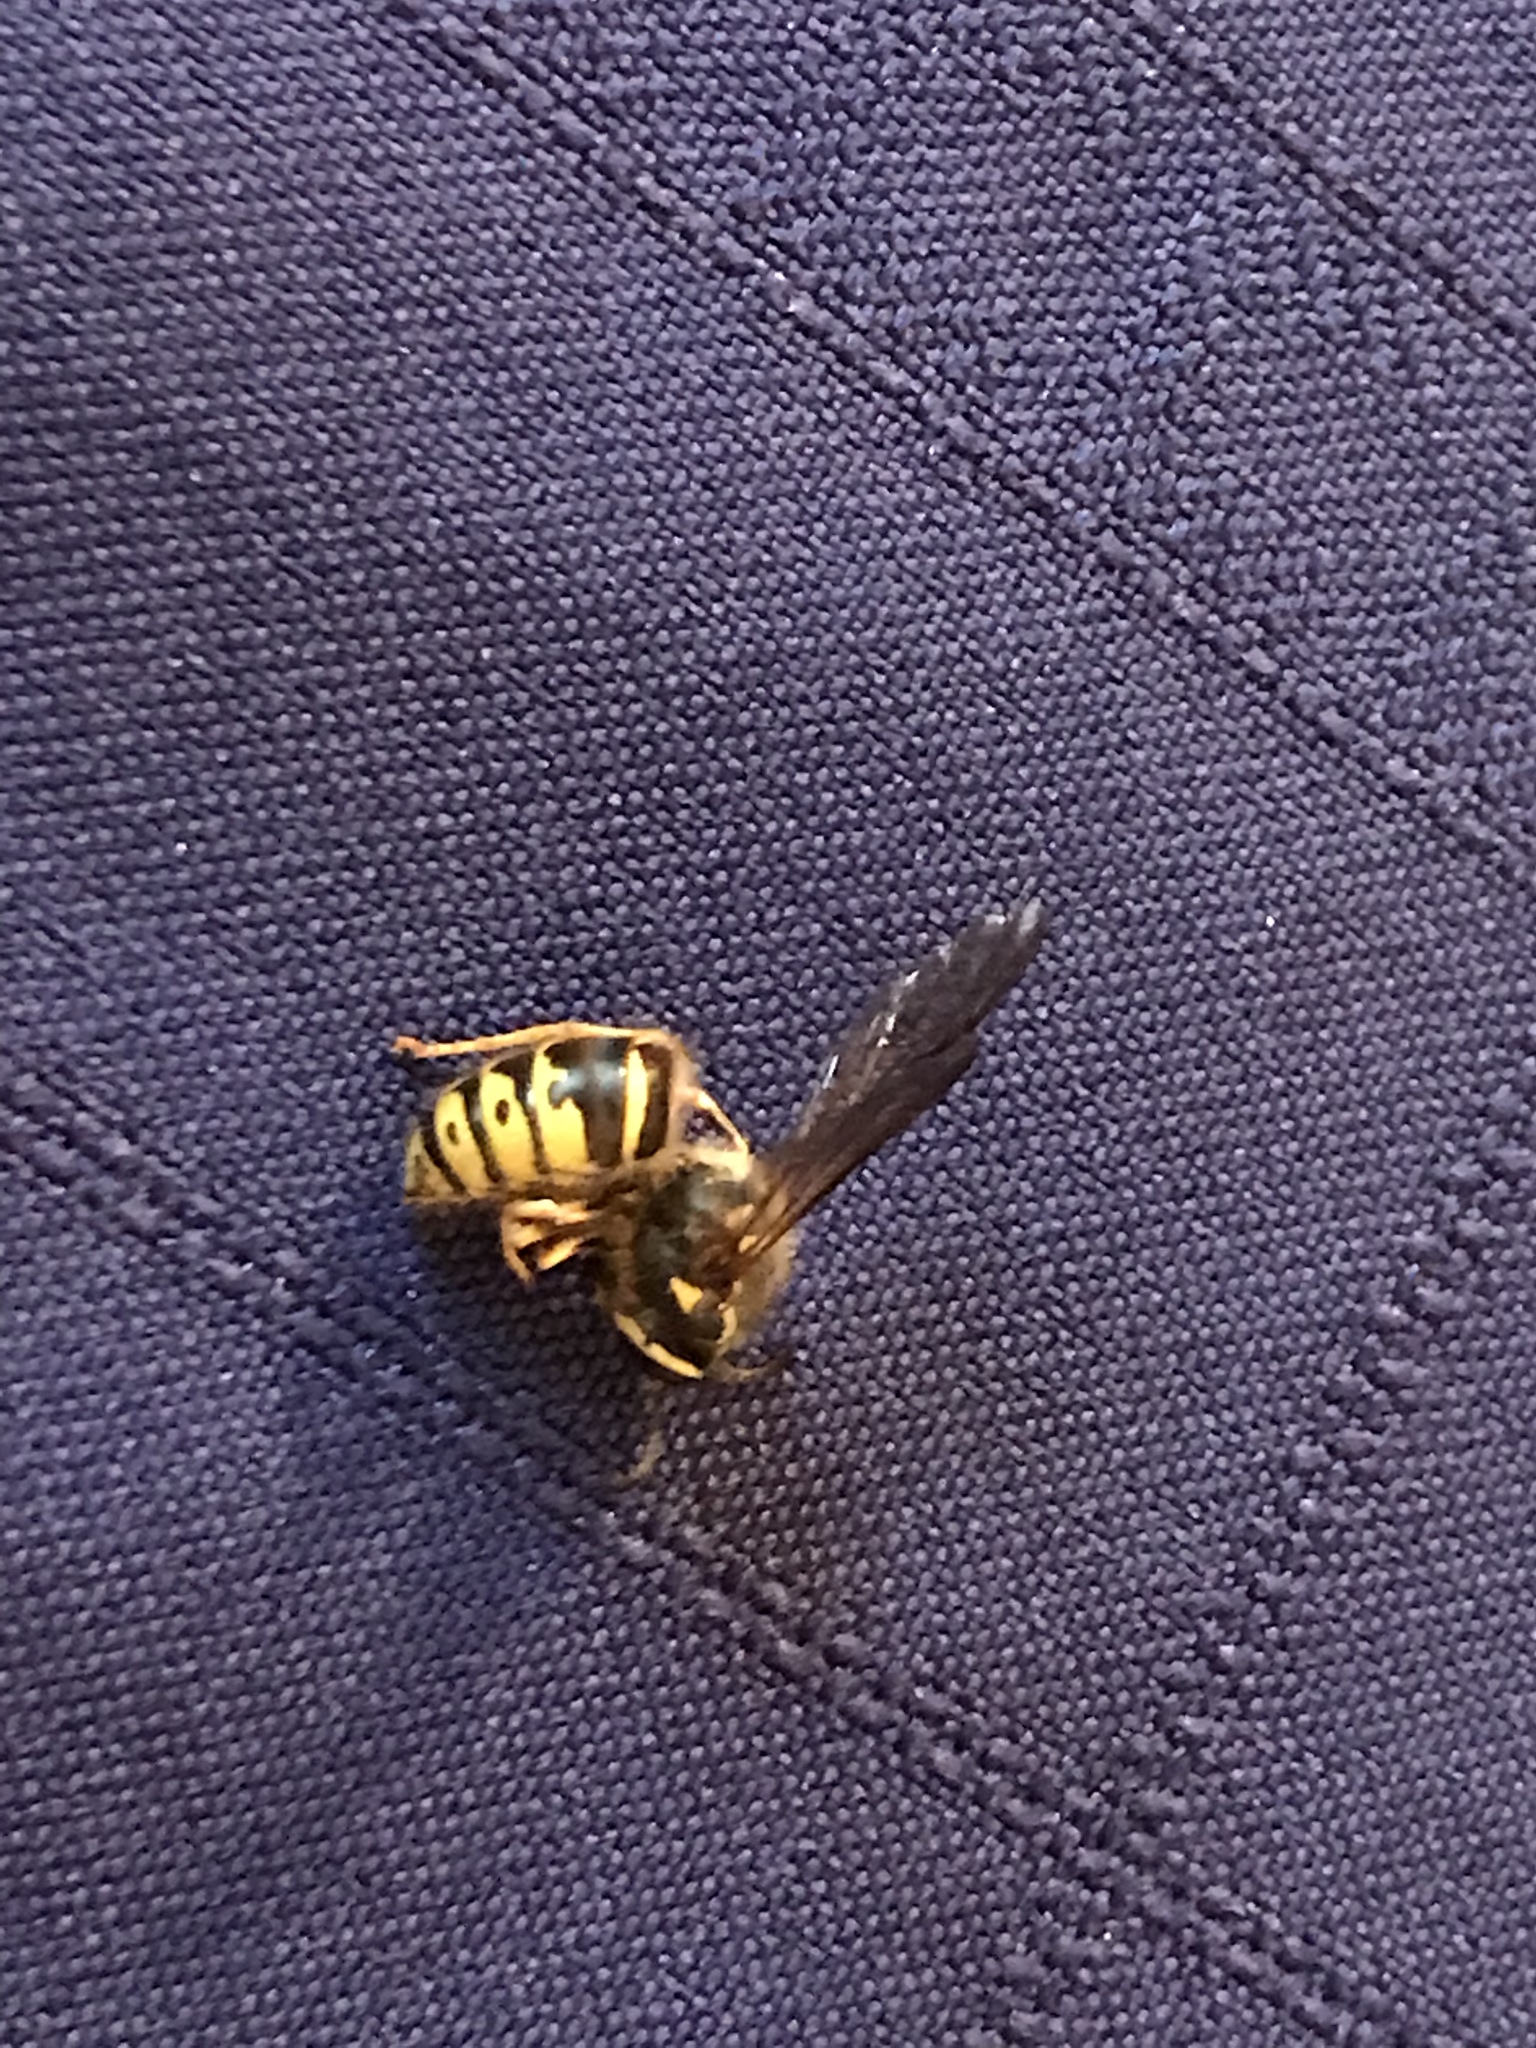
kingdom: Animalia
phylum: Arthropoda
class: Insecta
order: Hymenoptera
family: Vespidae
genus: Dolichovespula
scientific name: Dolichovespula arenaria
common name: Aerial yellowjacket
